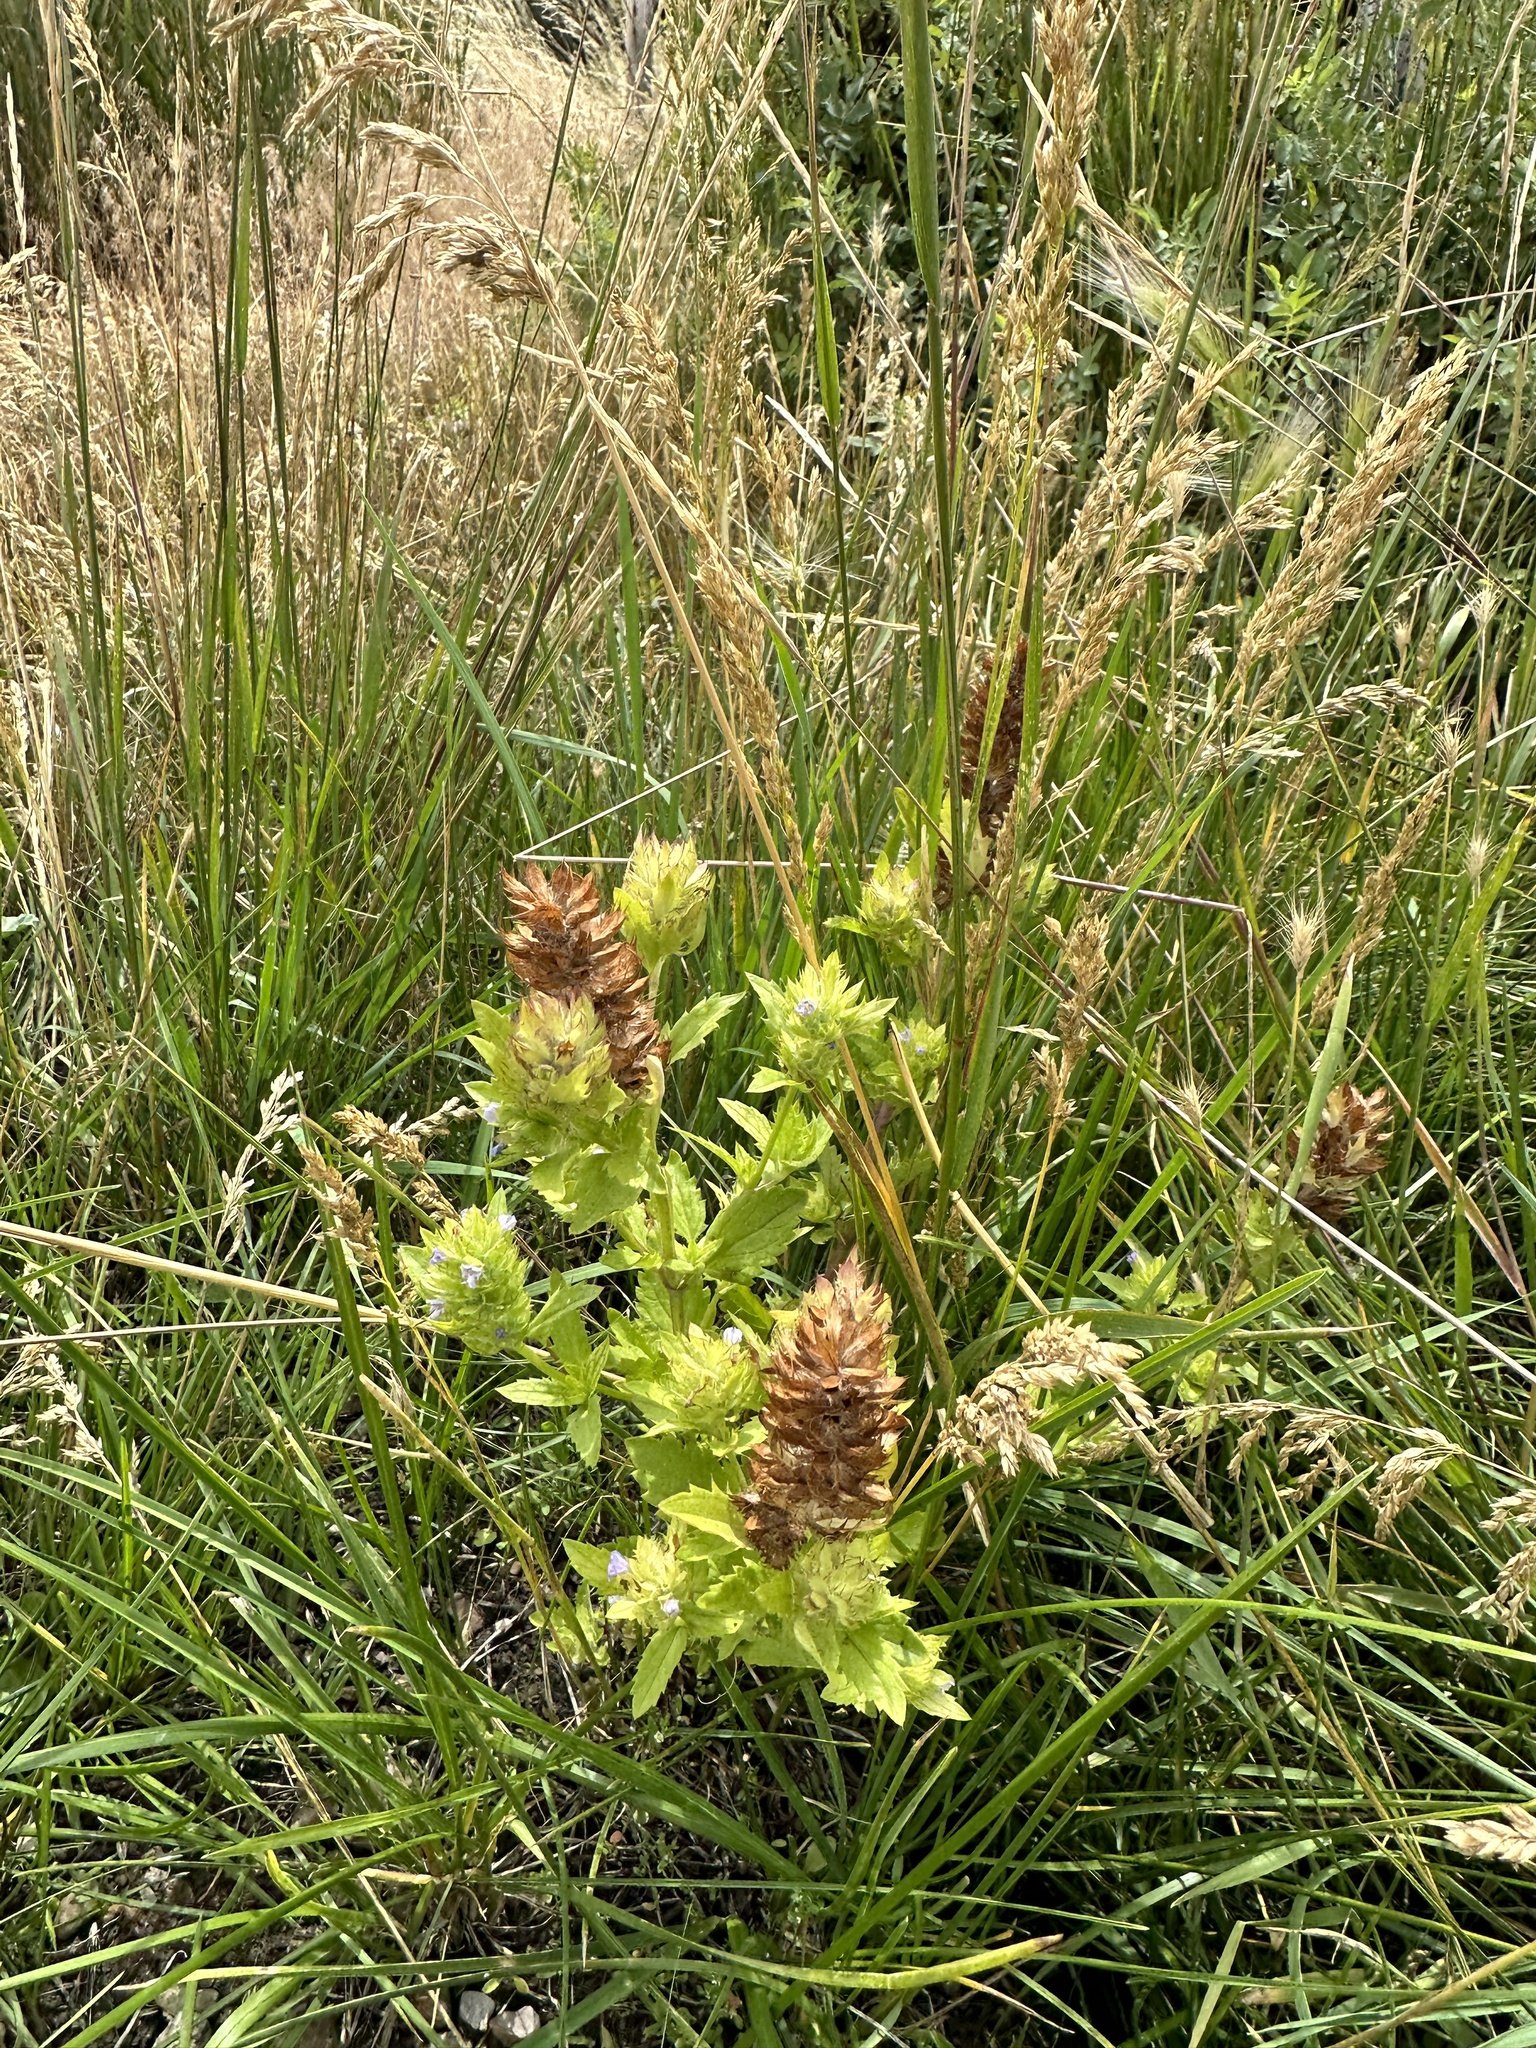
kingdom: Plantae
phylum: Tracheophyta
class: Magnoliopsida
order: Lamiales
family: Lamiaceae
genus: Dracocephalum
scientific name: Dracocephalum parviflorum
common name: American dragonhead
